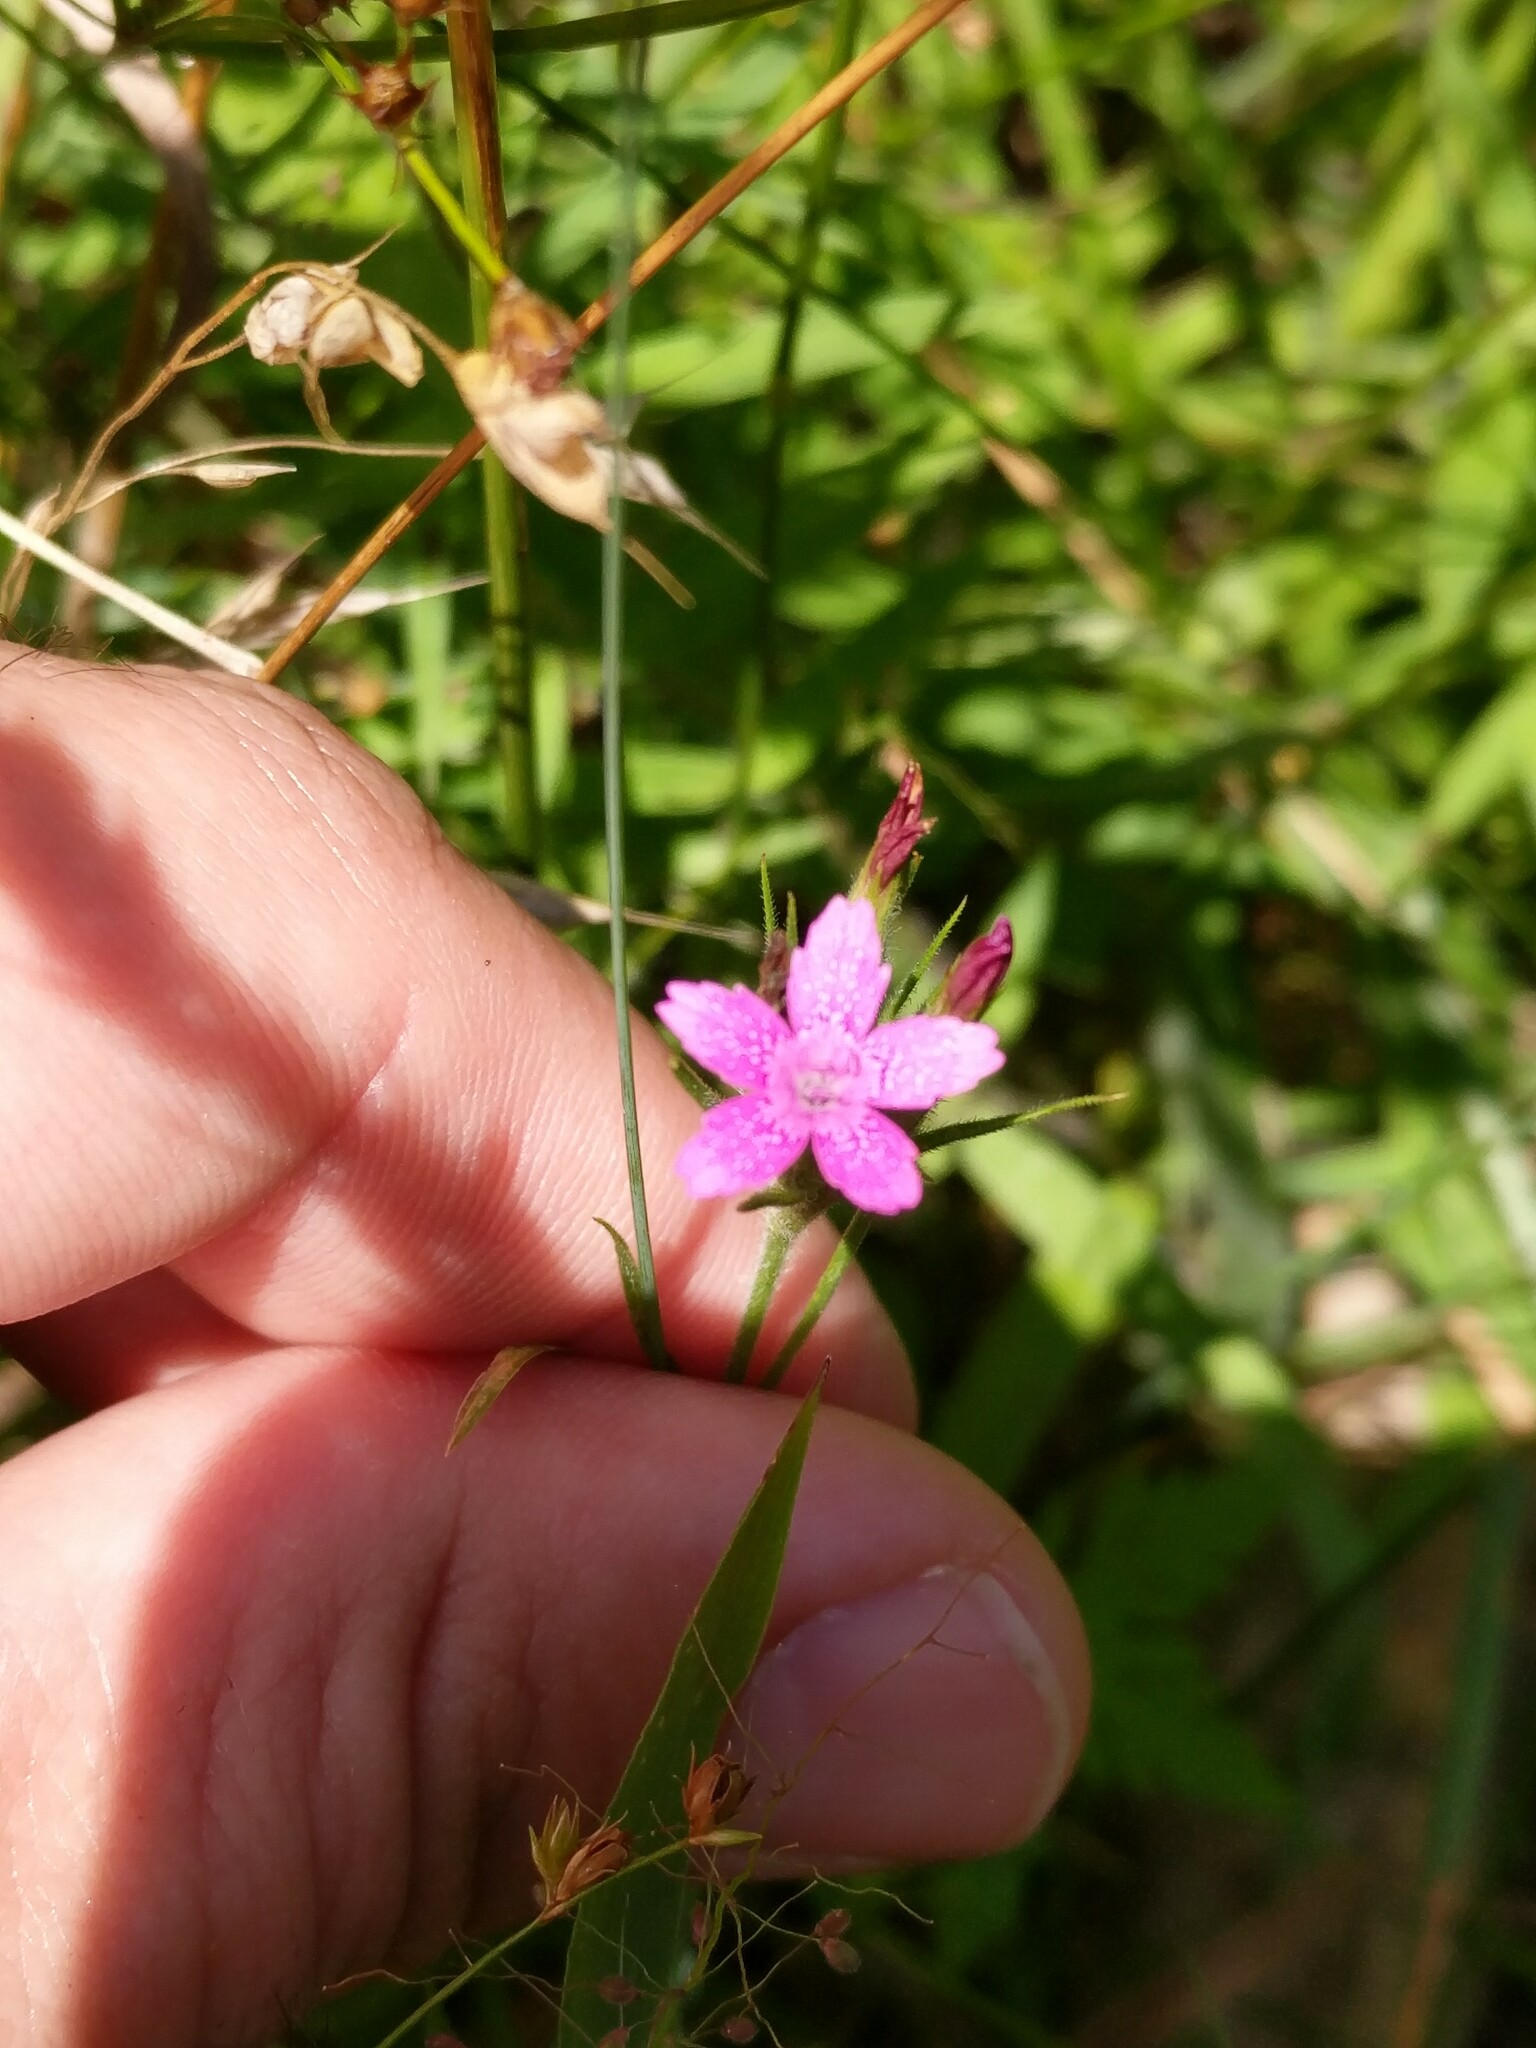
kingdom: Plantae
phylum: Tracheophyta
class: Magnoliopsida
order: Caryophyllales
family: Caryophyllaceae
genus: Dianthus
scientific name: Dianthus armeria
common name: Deptford pink
